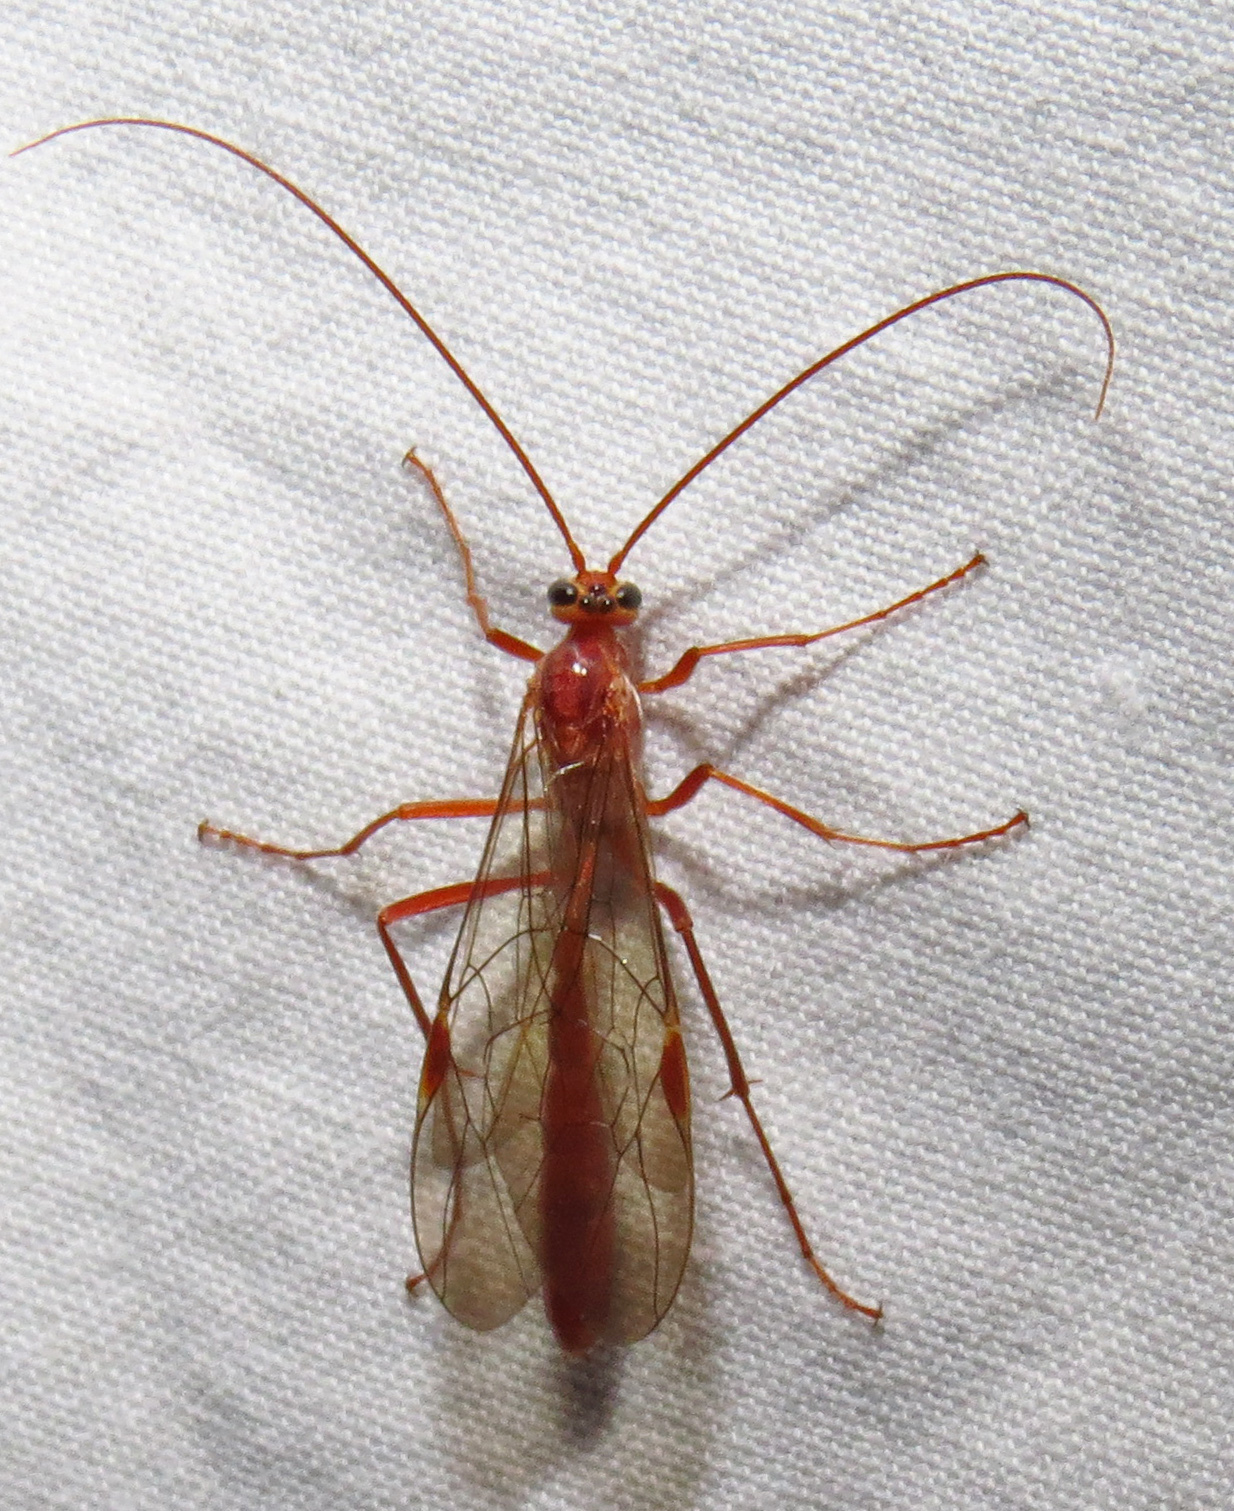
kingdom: Animalia
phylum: Arthropoda
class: Insecta
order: Hymenoptera
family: Ichneumonidae
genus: Ophion
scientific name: Ophion
